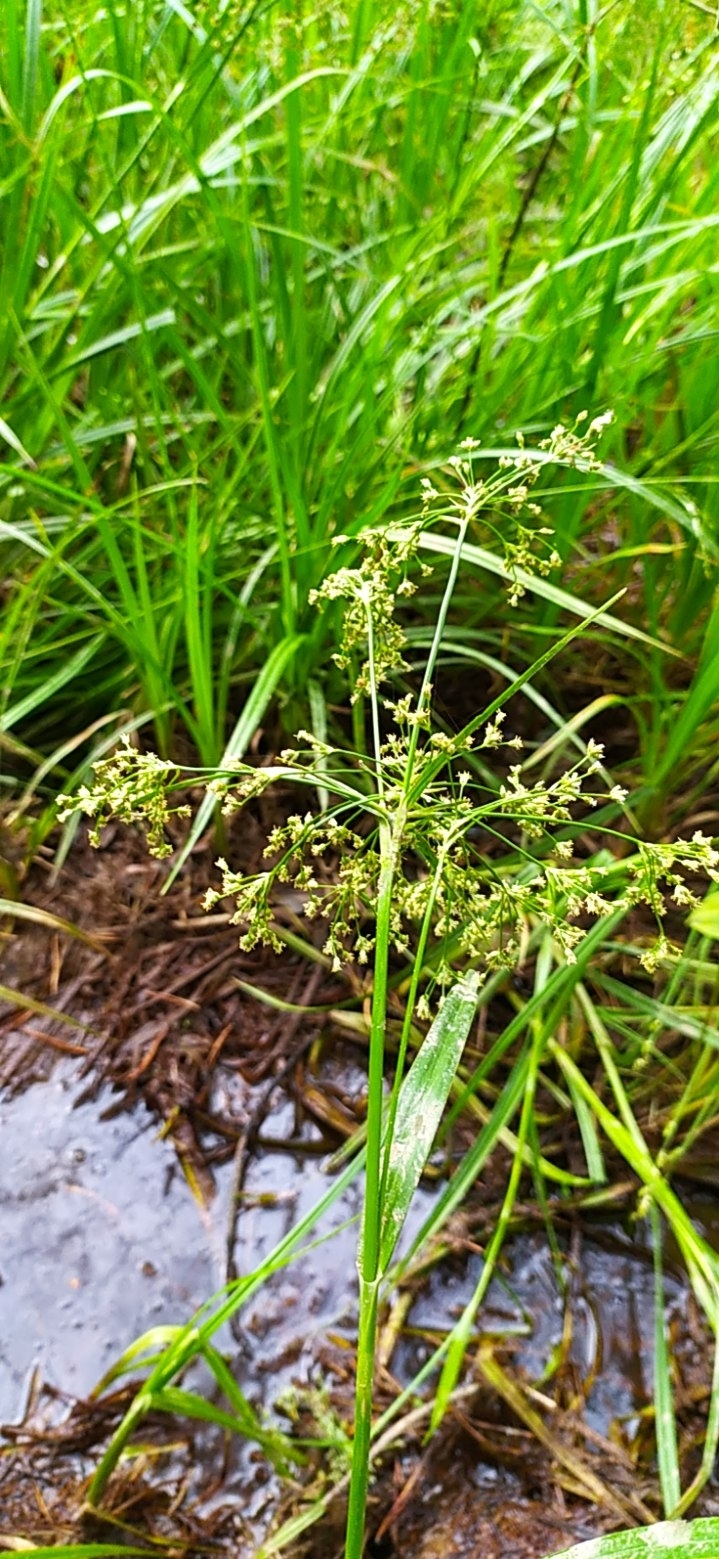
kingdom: Plantae
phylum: Tracheophyta
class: Liliopsida
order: Poales
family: Cyperaceae
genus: Scirpus
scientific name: Scirpus sylvaticus
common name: Wood club-rush
